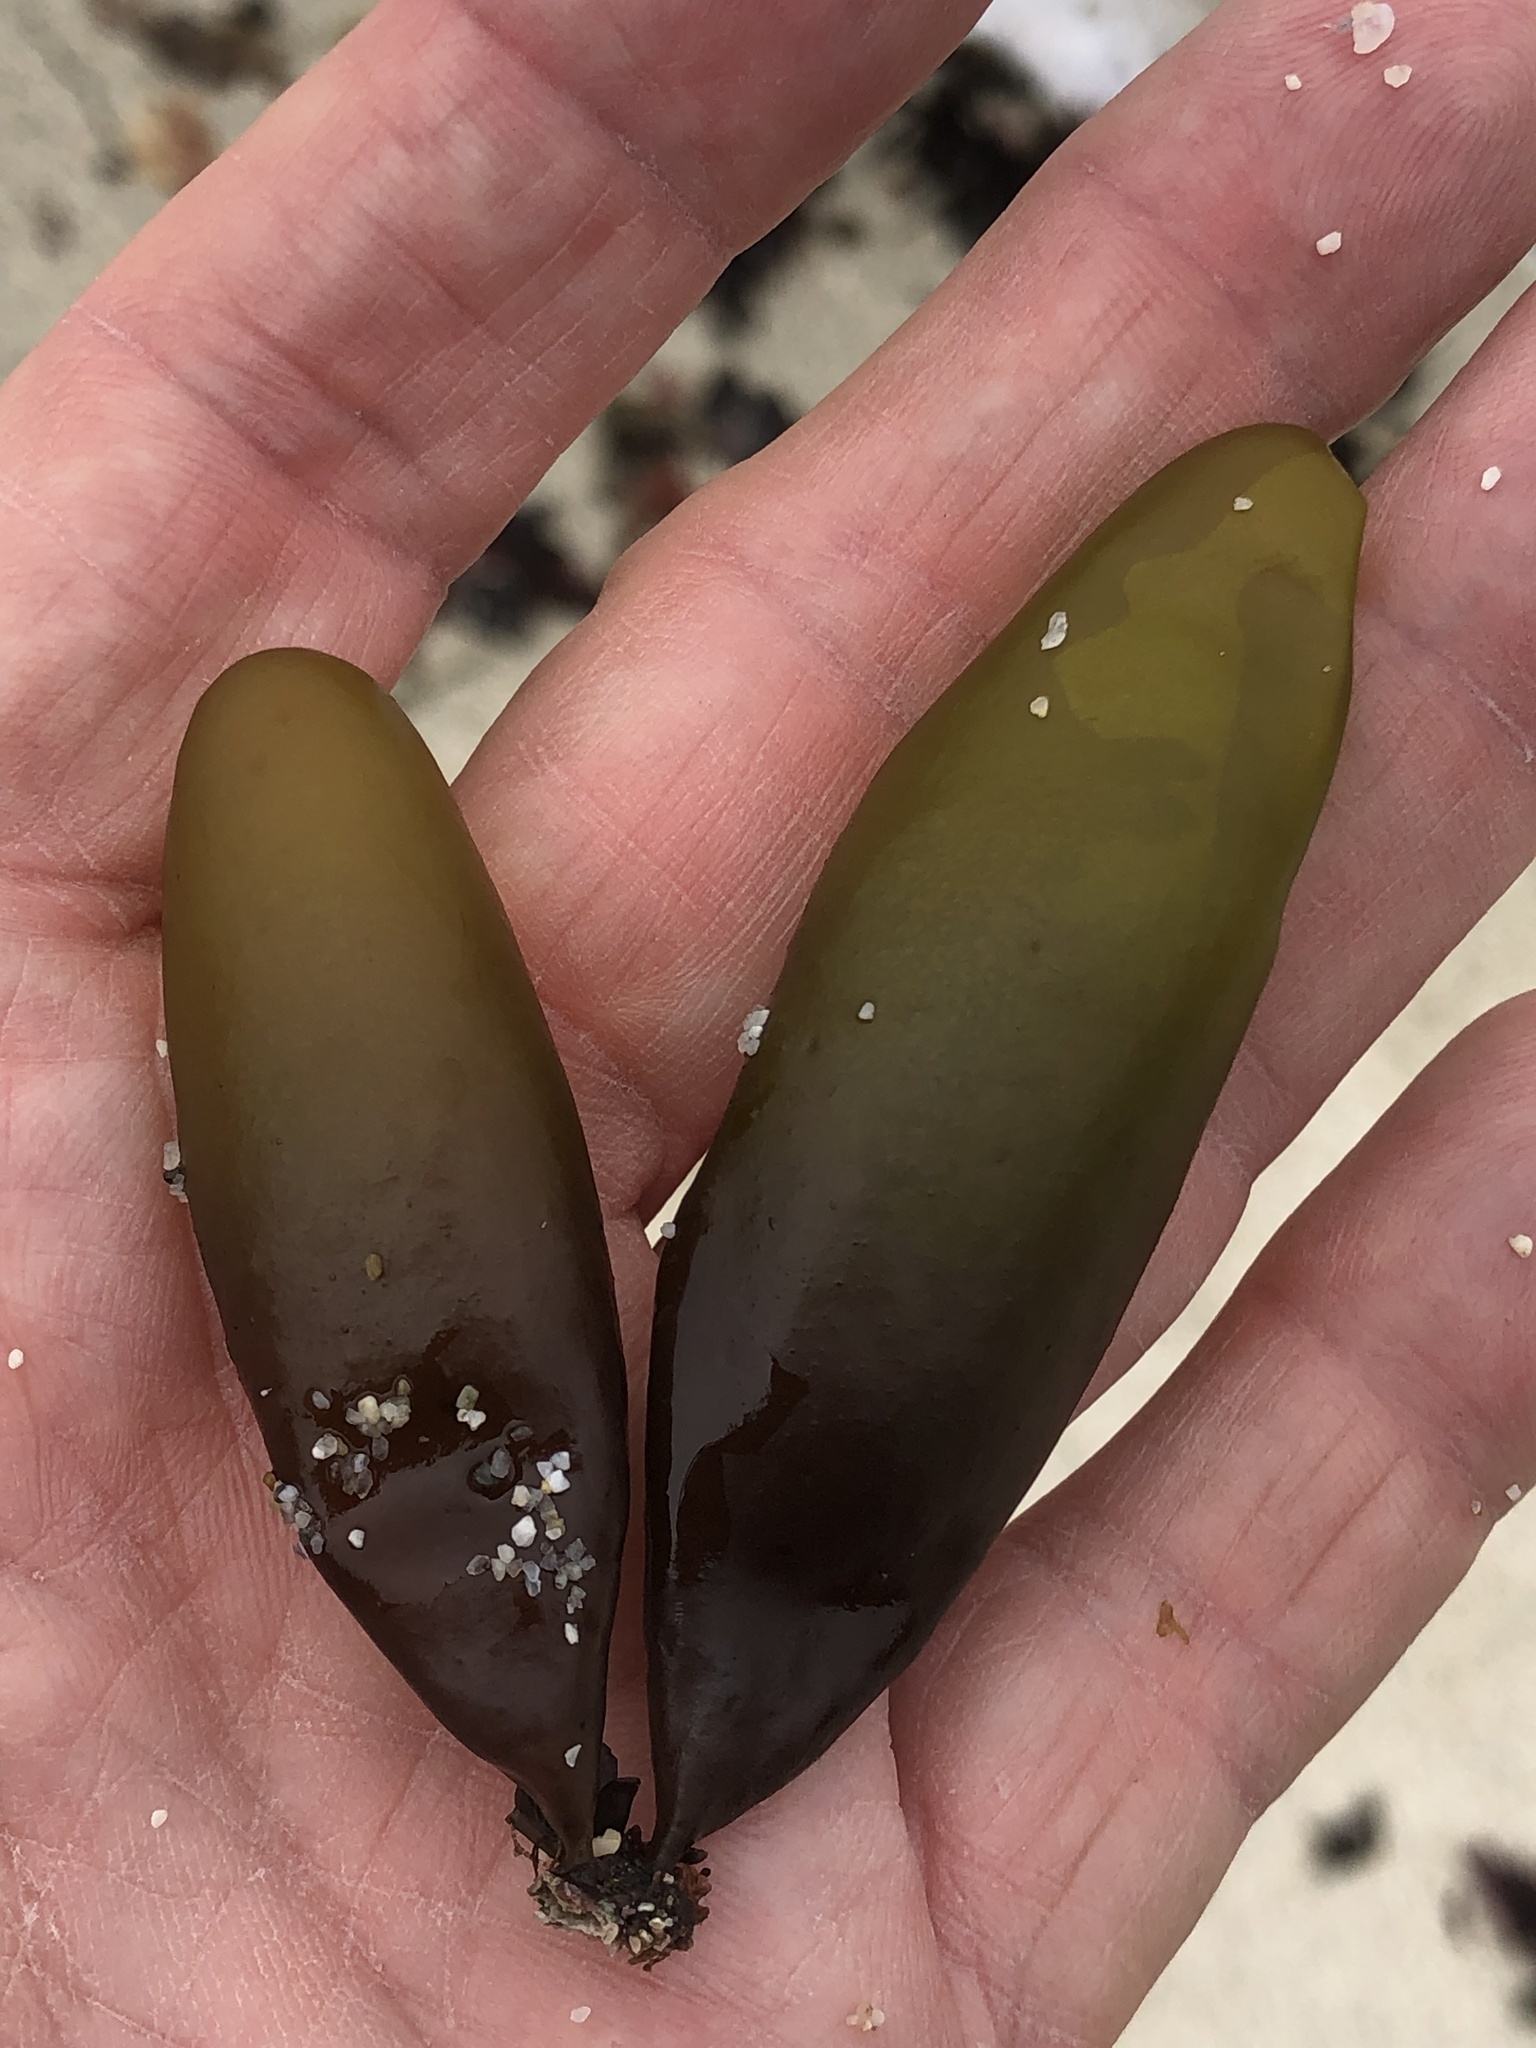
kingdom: Plantae
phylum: Rhodophyta
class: Florideophyceae
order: Palmariales
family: Palmariaceae
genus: Halosaccion
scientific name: Halosaccion glandiforme
